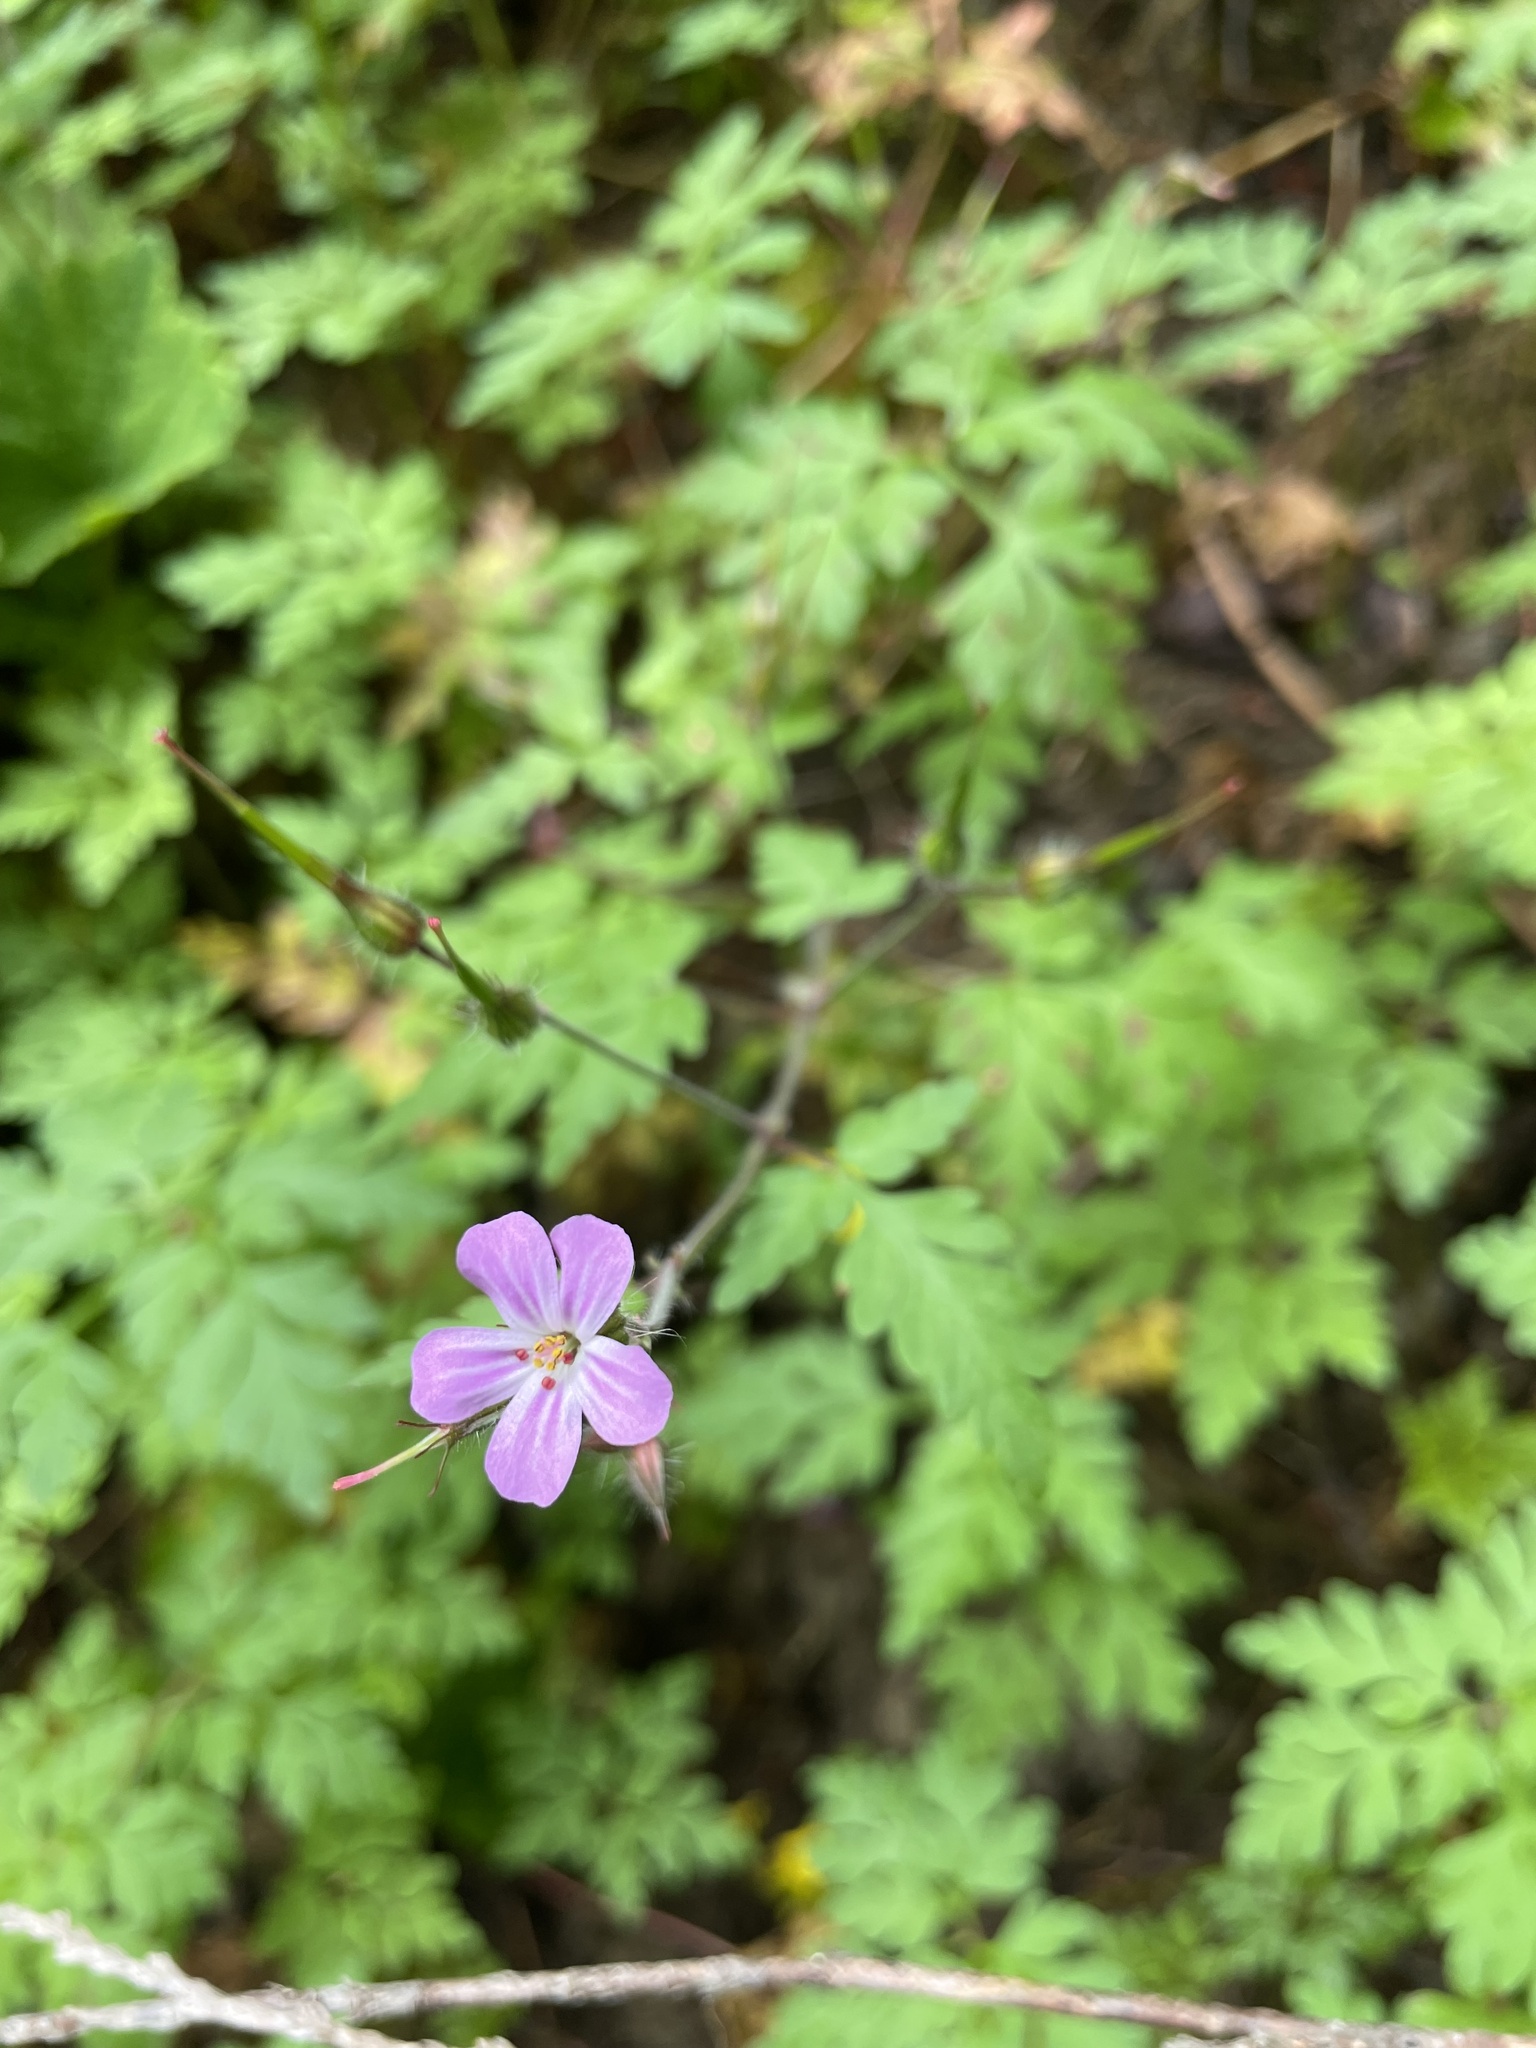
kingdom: Plantae
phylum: Tracheophyta
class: Magnoliopsida
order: Geraniales
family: Geraniaceae
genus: Geranium
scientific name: Geranium robertianum
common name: Herb-robert
